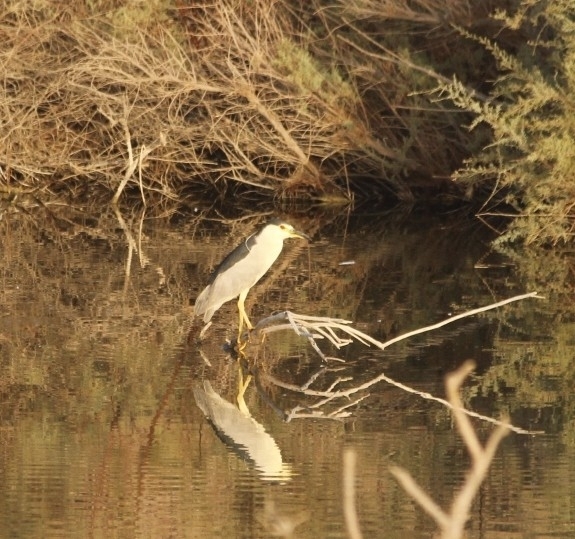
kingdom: Animalia
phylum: Chordata
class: Aves
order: Pelecaniformes
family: Ardeidae
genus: Nycticorax
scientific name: Nycticorax nycticorax
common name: Black-crowned night heron
